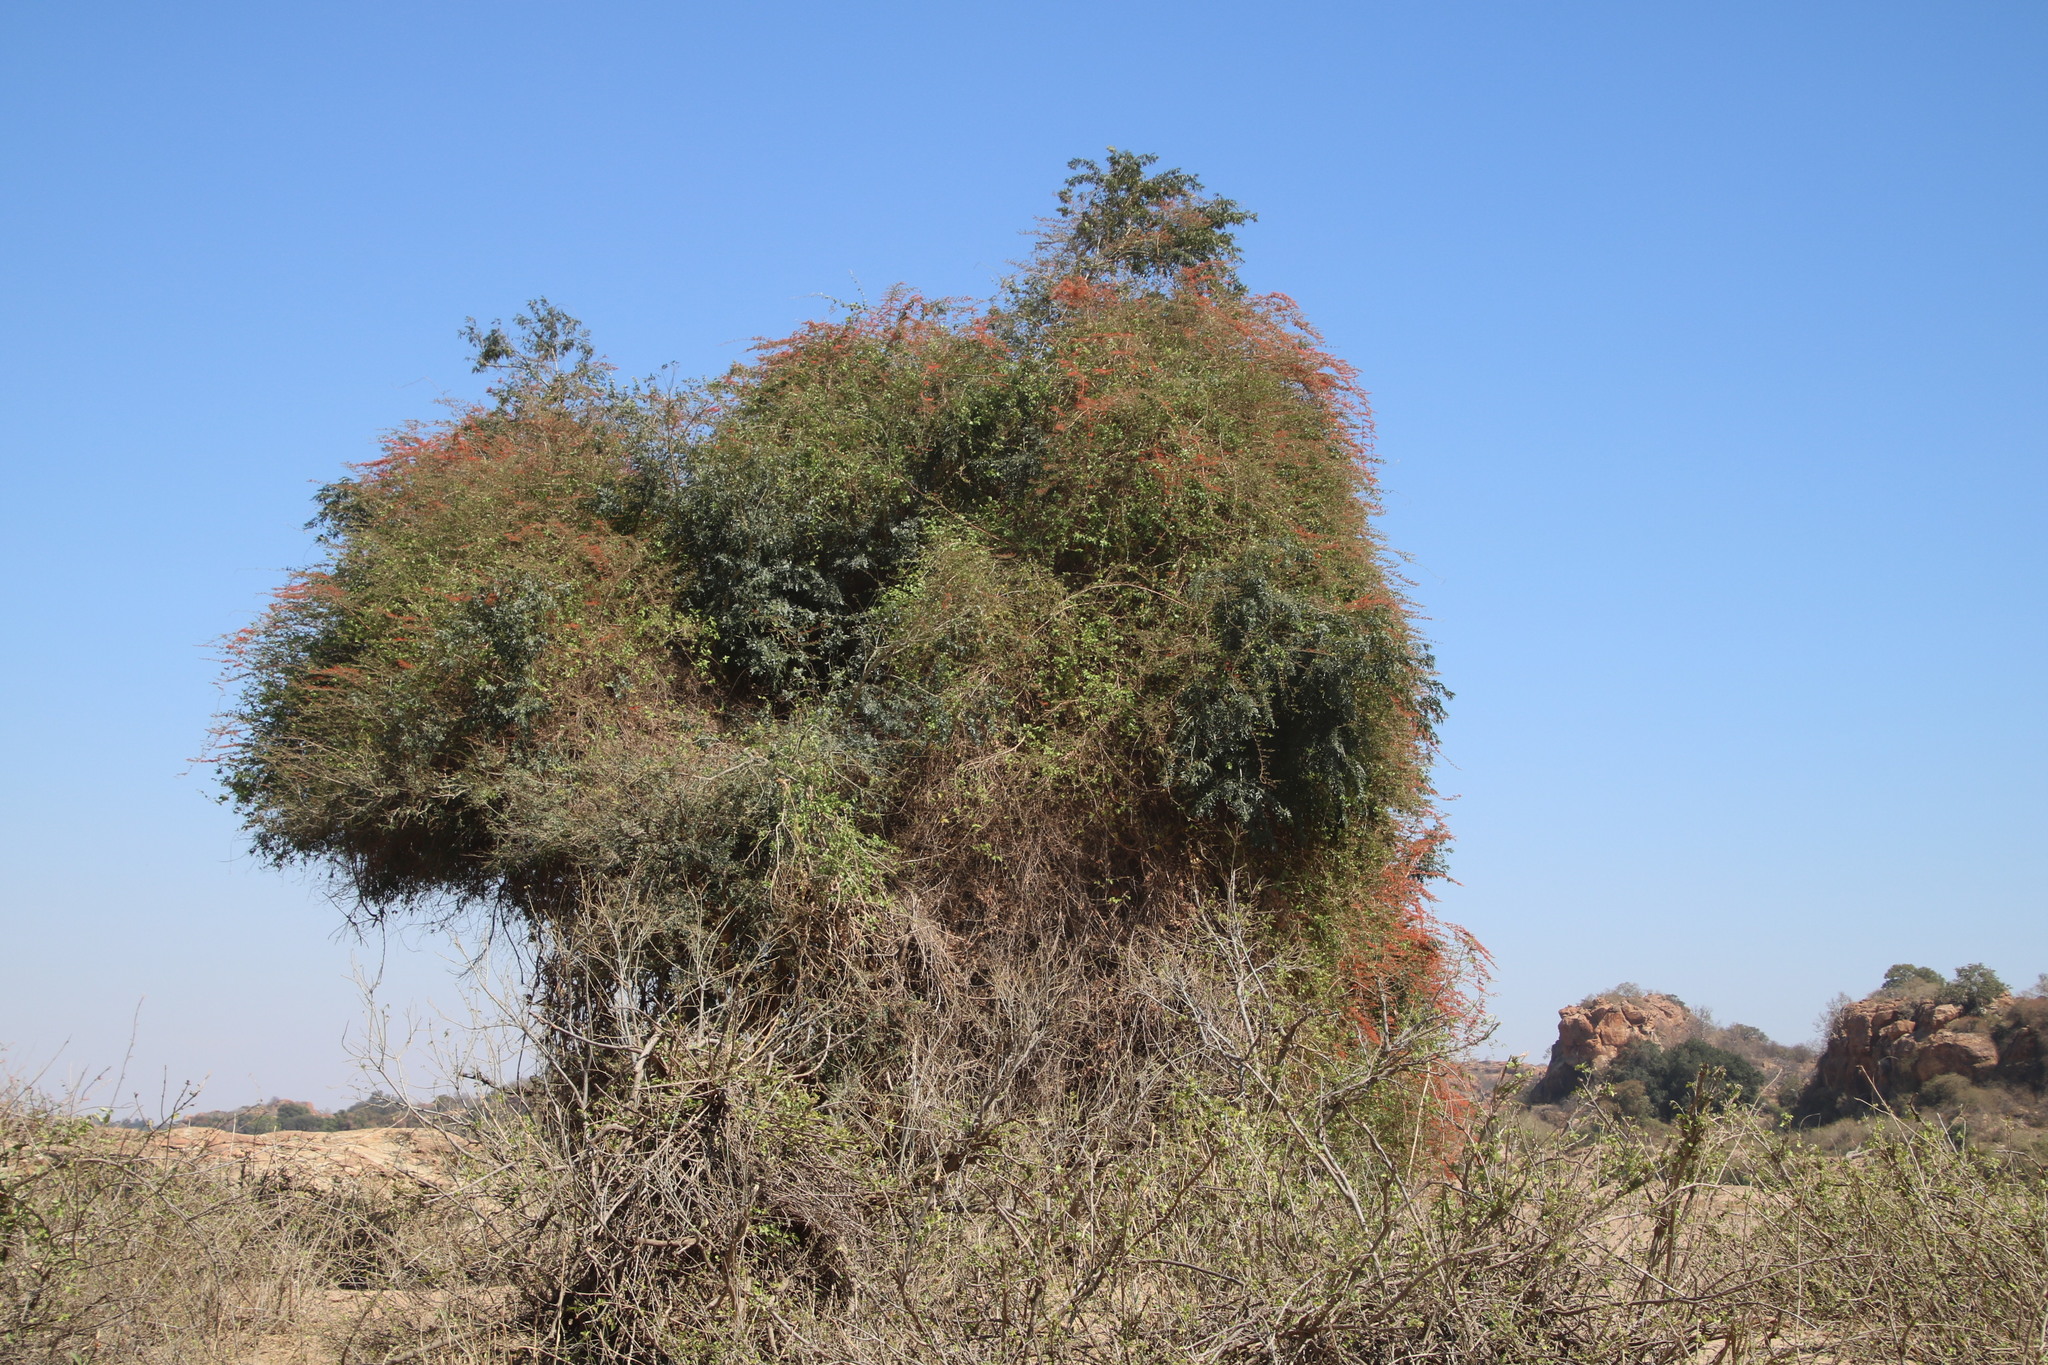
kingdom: Plantae
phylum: Tracheophyta
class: Magnoliopsida
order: Myrtales
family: Combretaceae
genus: Combretum
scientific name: Combretum microphyllum
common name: Burningbush
